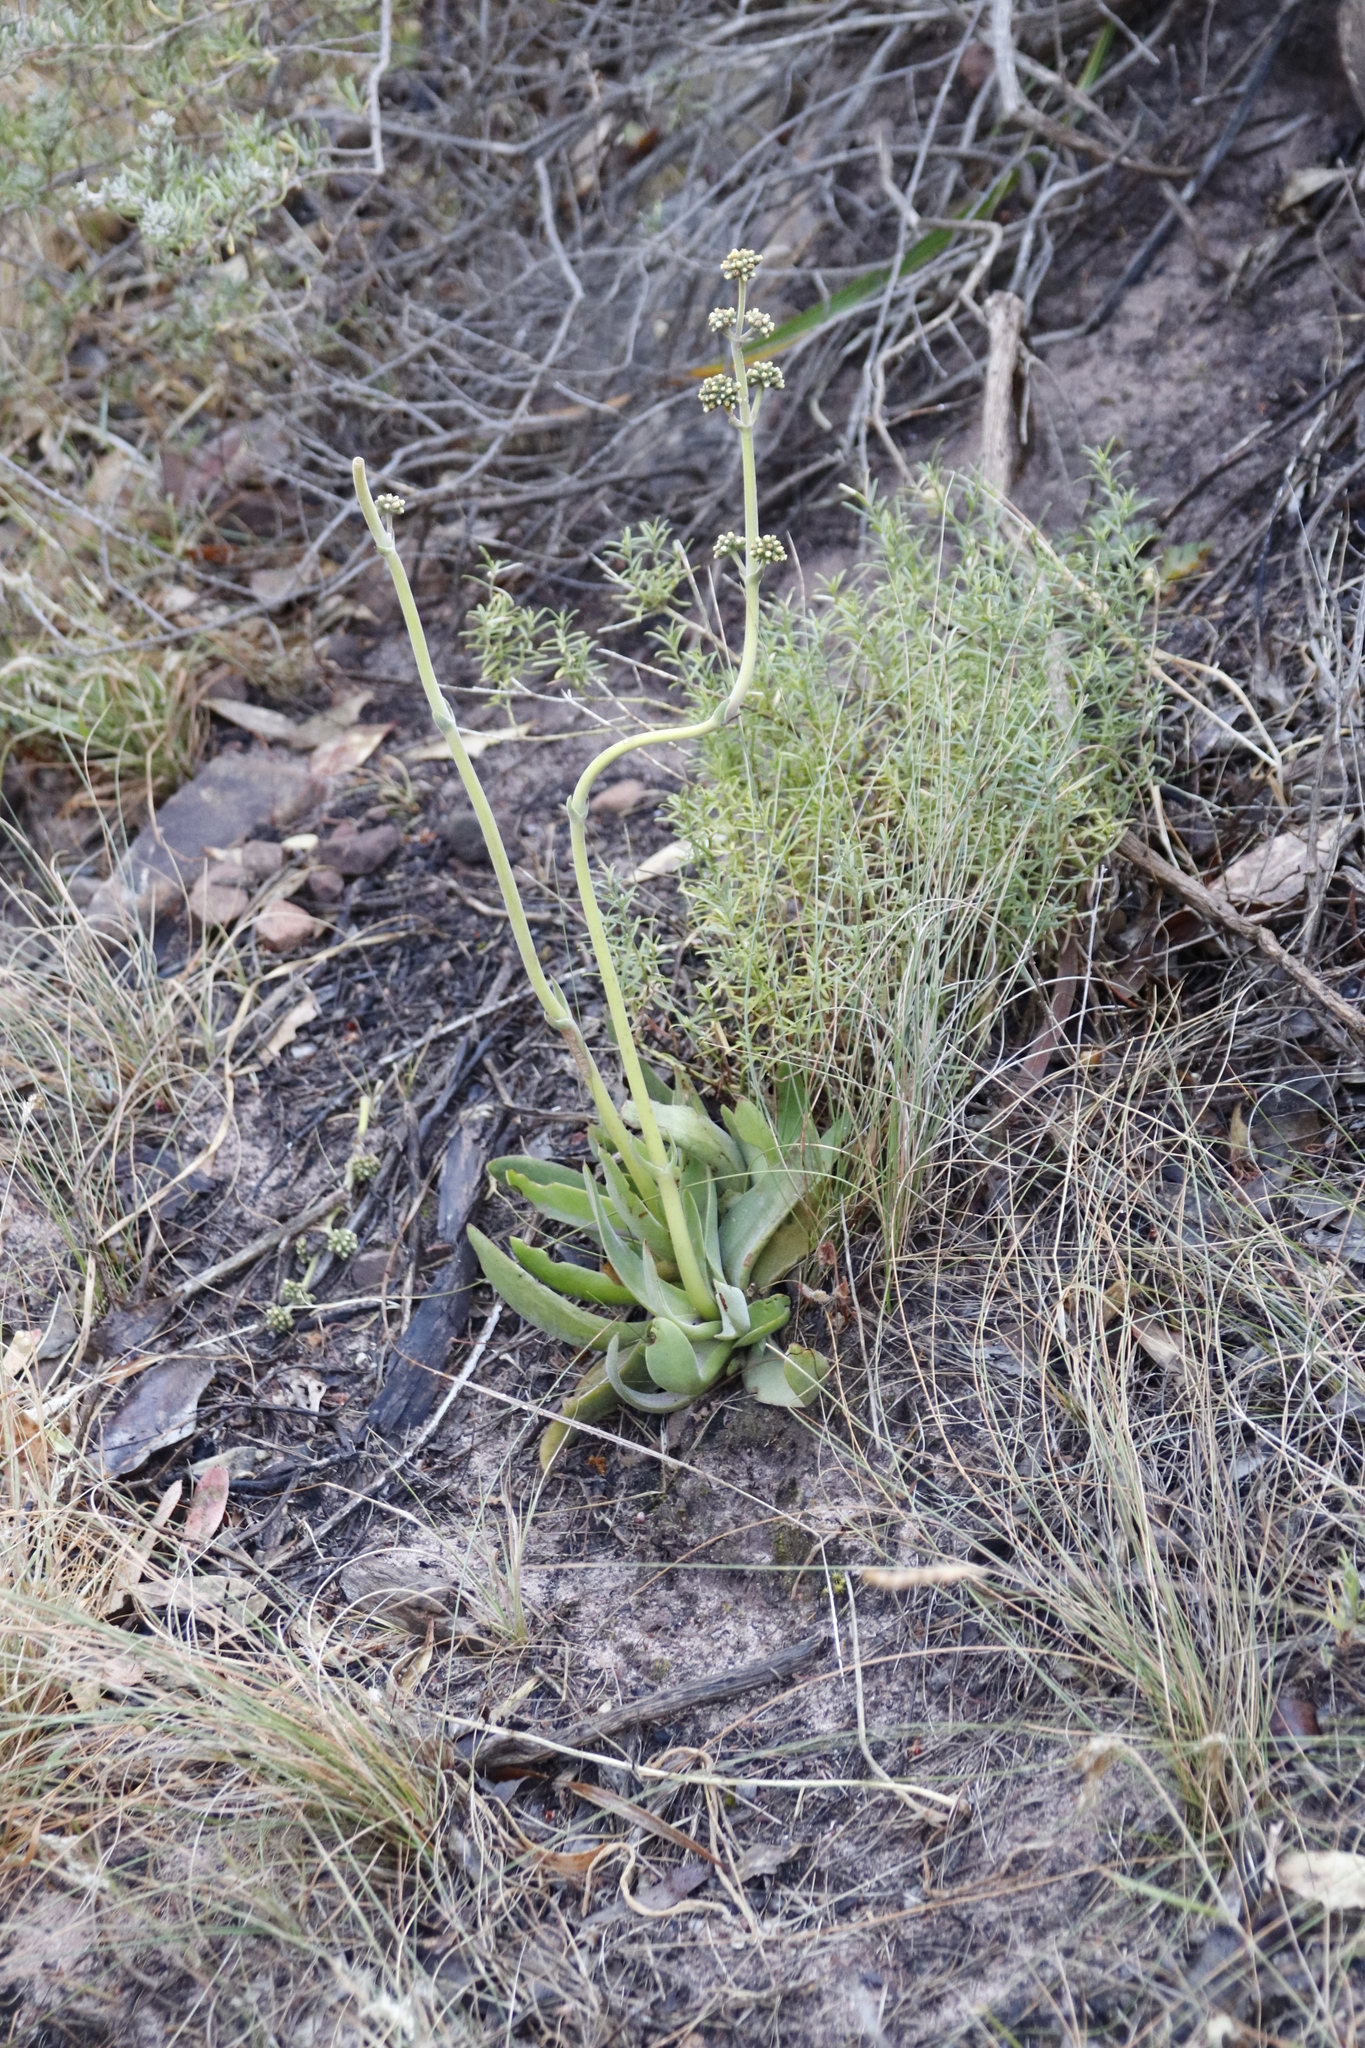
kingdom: Plantae
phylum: Tracheophyta
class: Magnoliopsida
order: Saxifragales
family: Crassulaceae
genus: Crassula
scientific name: Crassula nudicaulis
